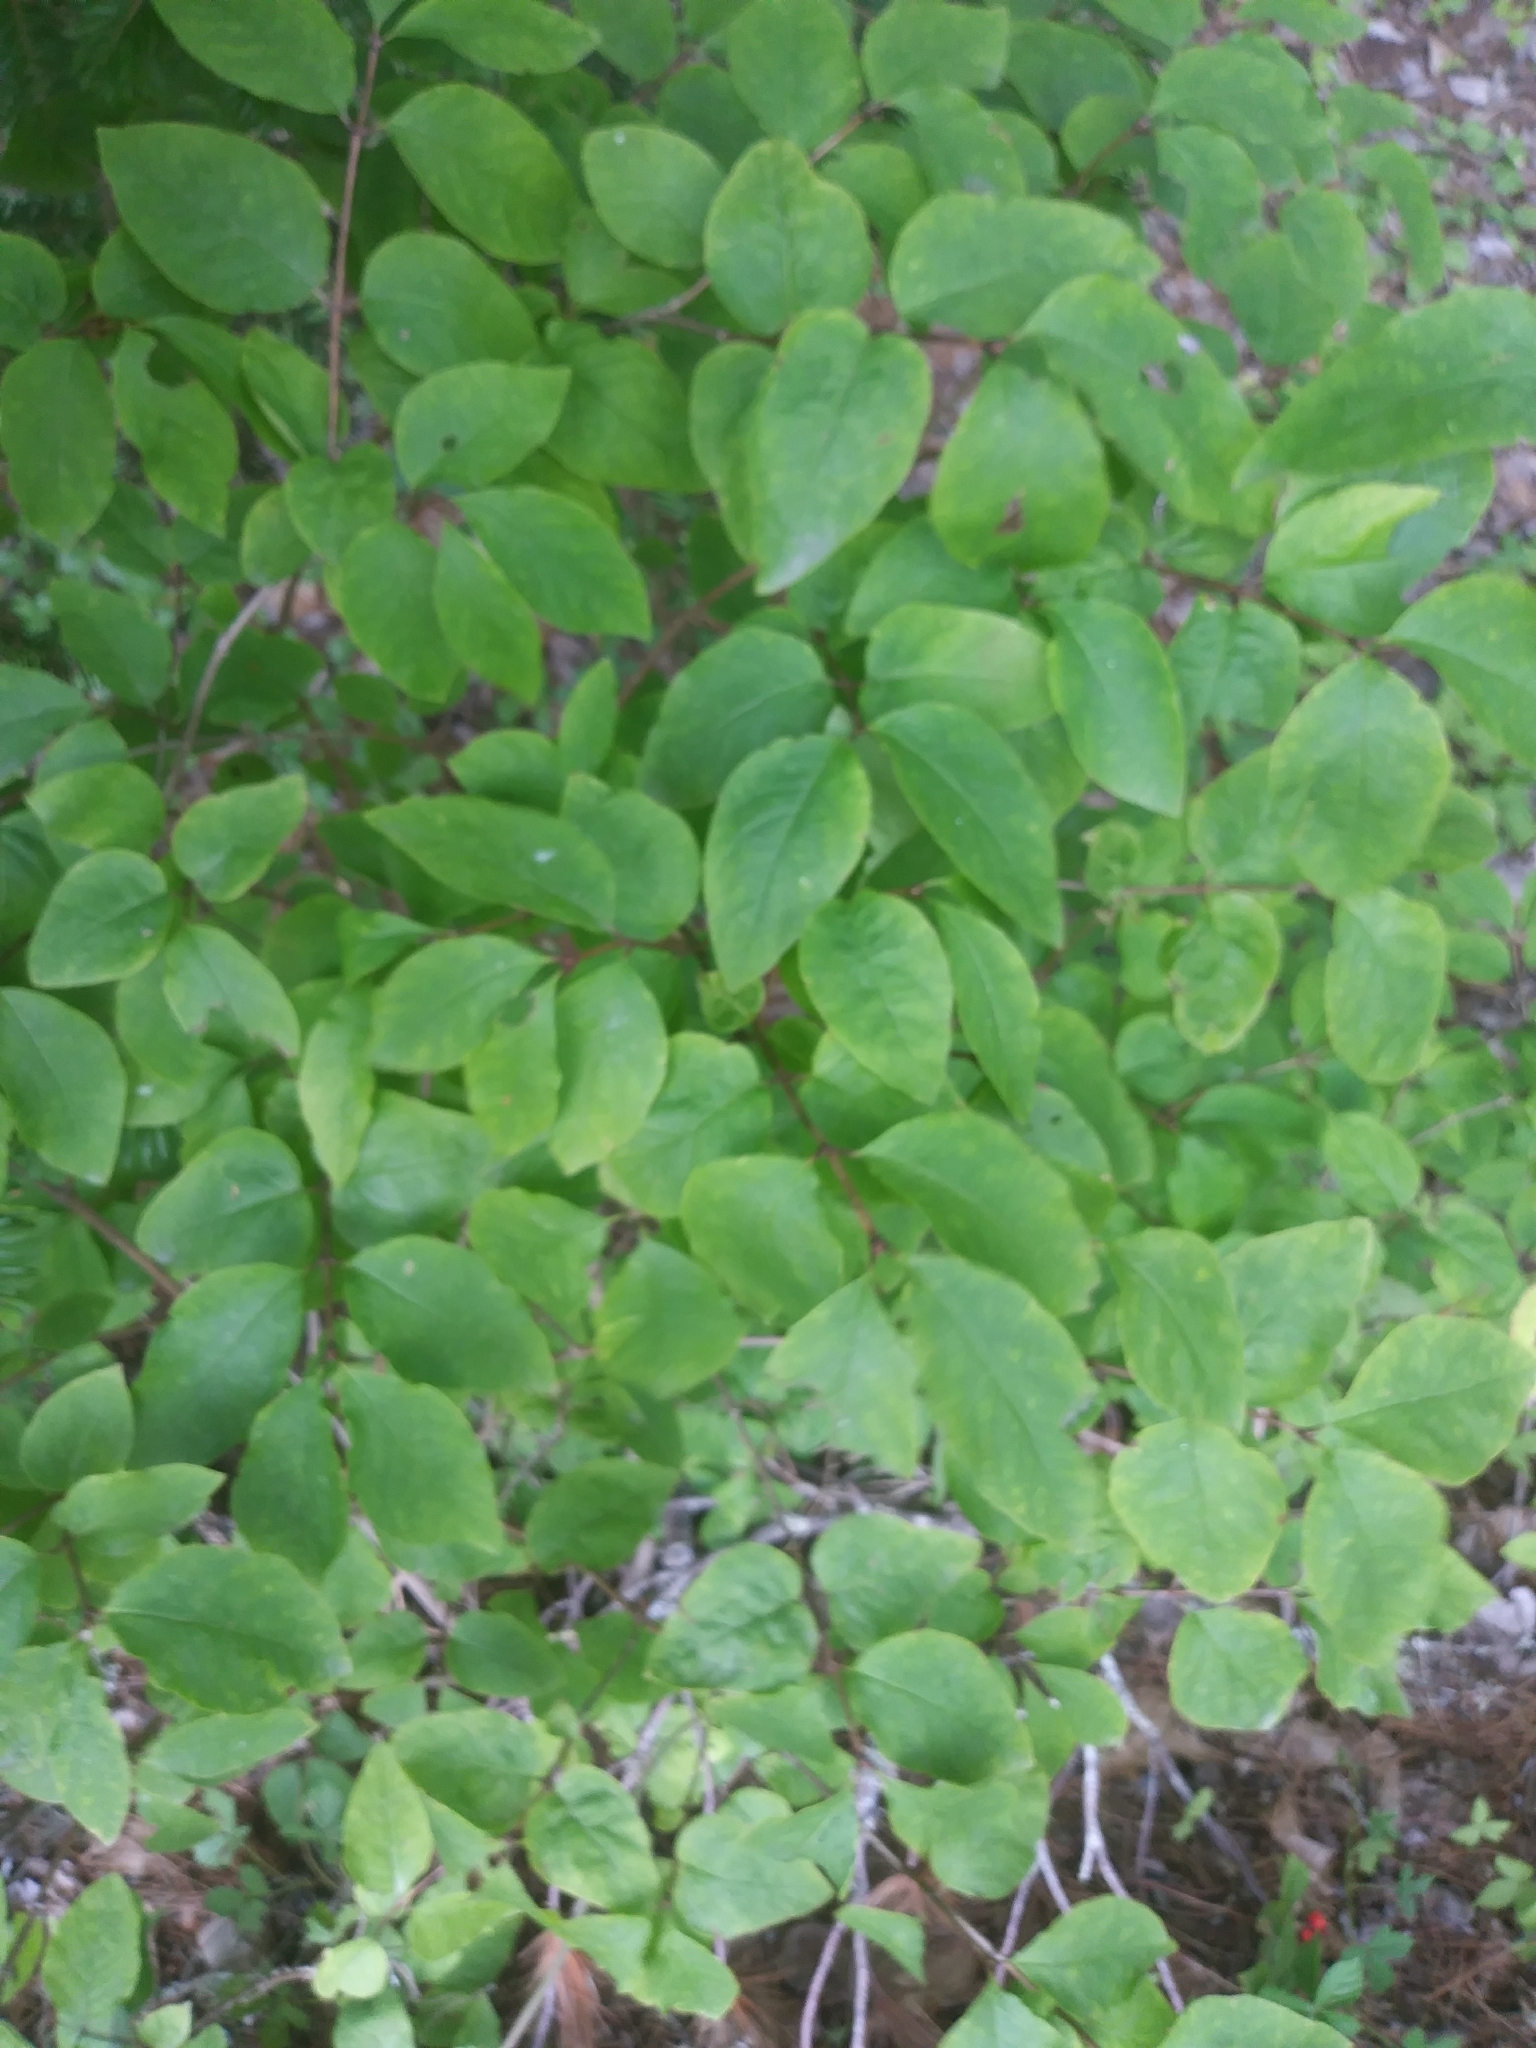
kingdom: Plantae
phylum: Tracheophyta
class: Magnoliopsida
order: Dipsacales
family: Caprifoliaceae
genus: Lonicera
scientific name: Lonicera canadensis
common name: American fly-honeysuckle
